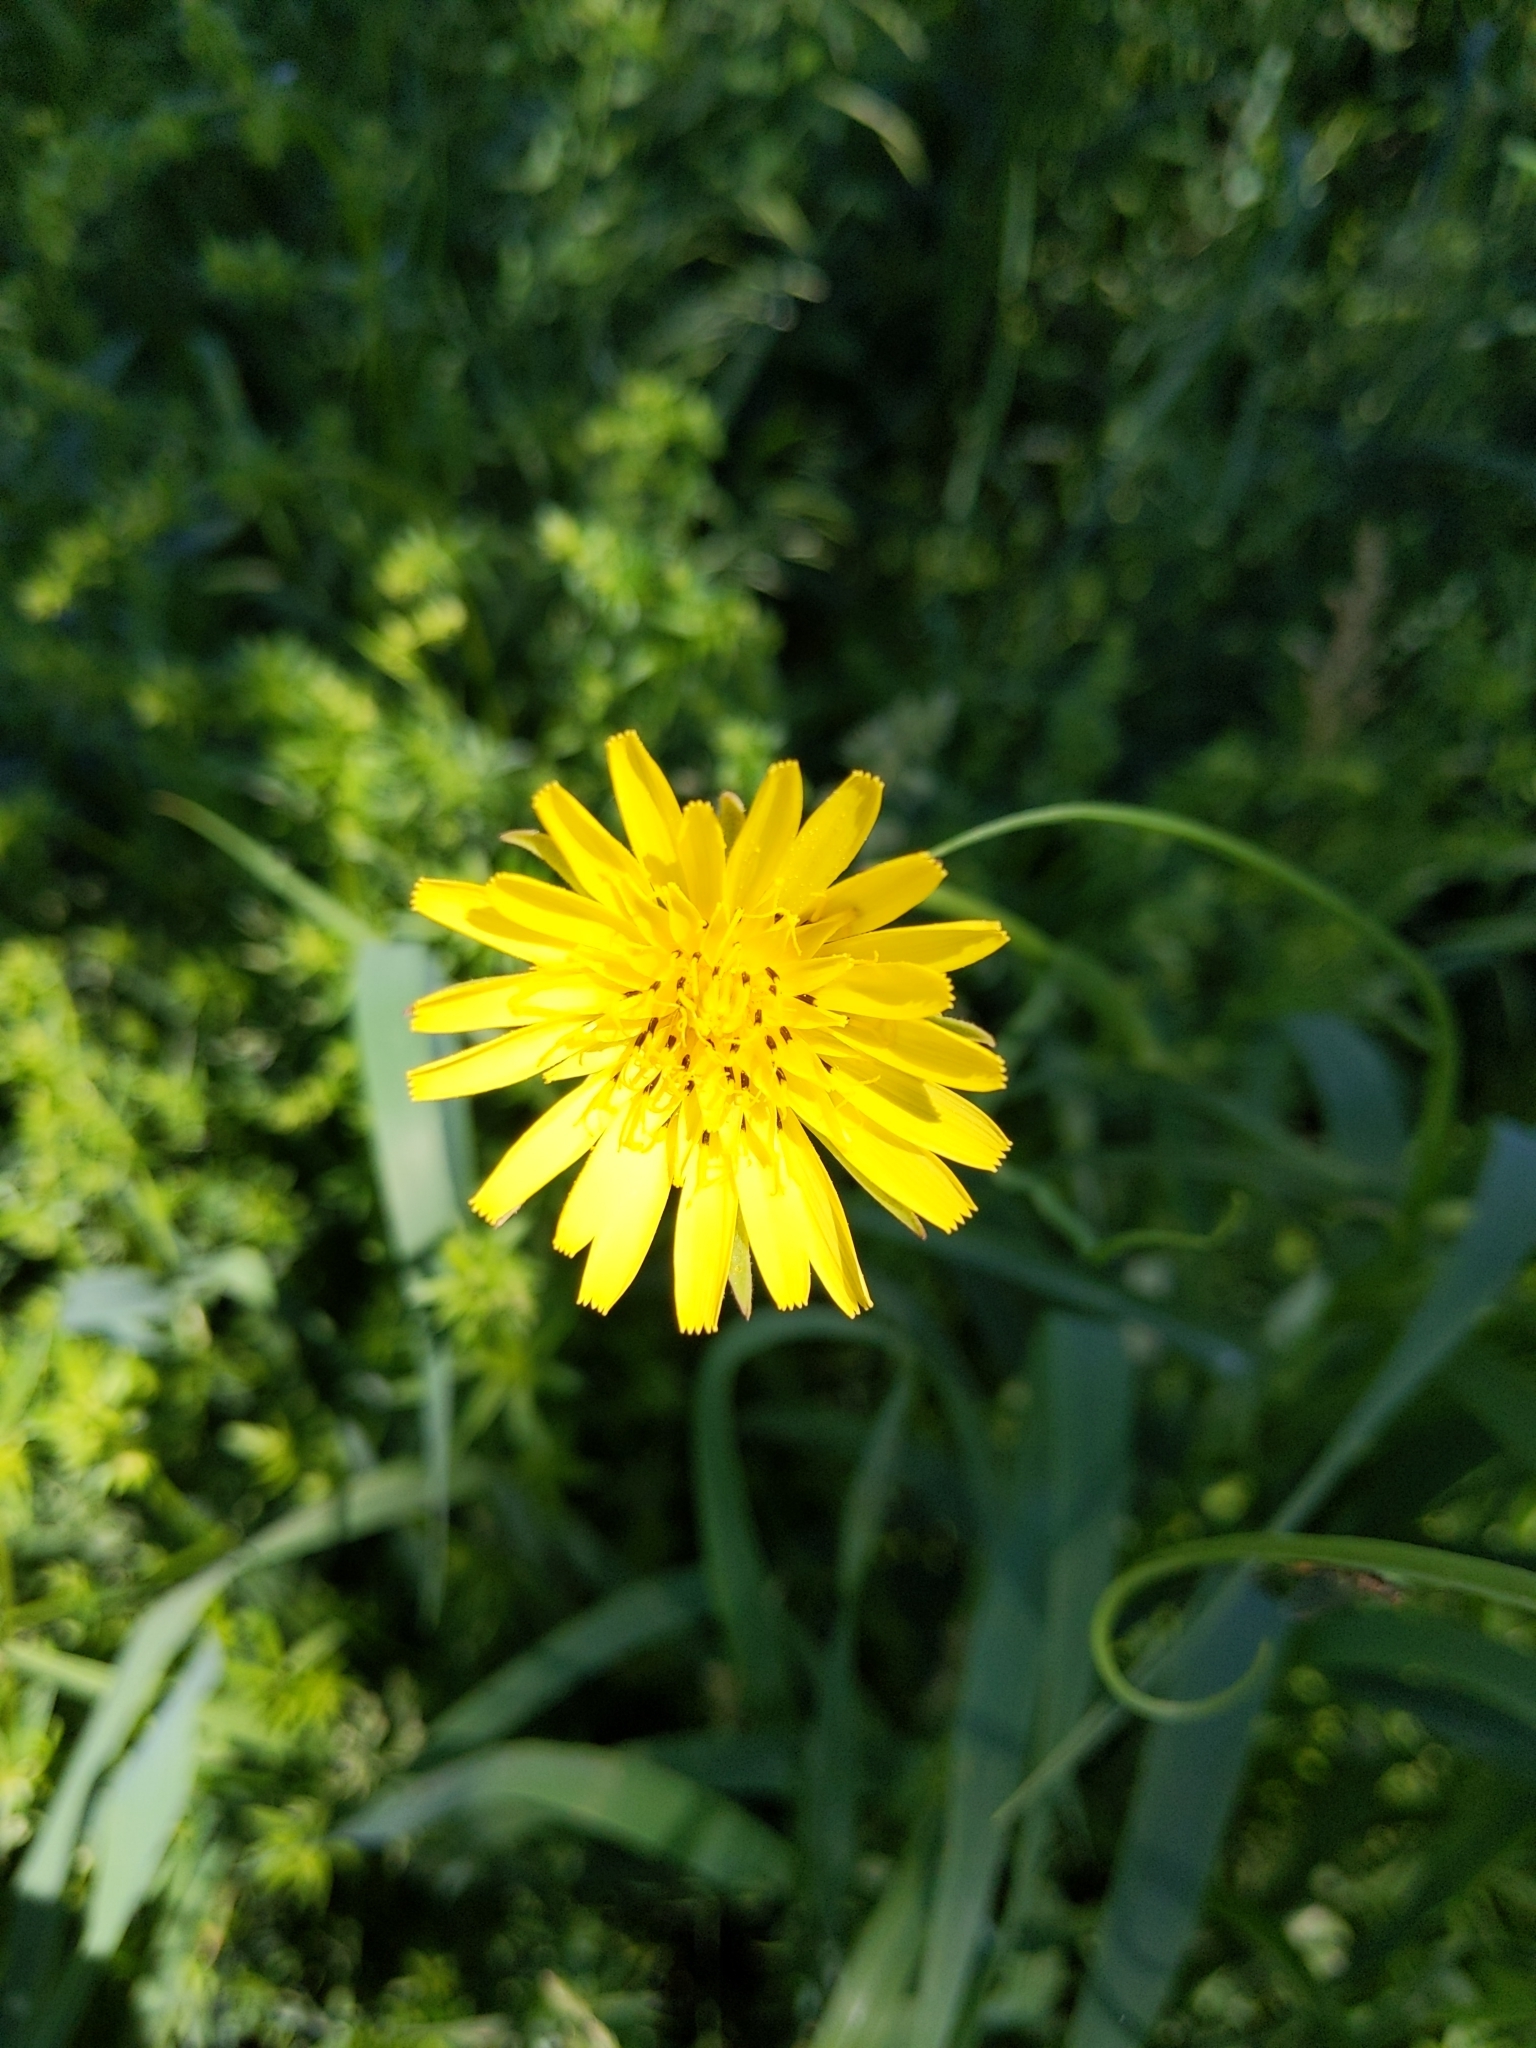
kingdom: Plantae
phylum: Tracheophyta
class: Magnoliopsida
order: Asterales
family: Asteraceae
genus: Tragopogon
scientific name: Tragopogon pratensis
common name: Goat's-beard
